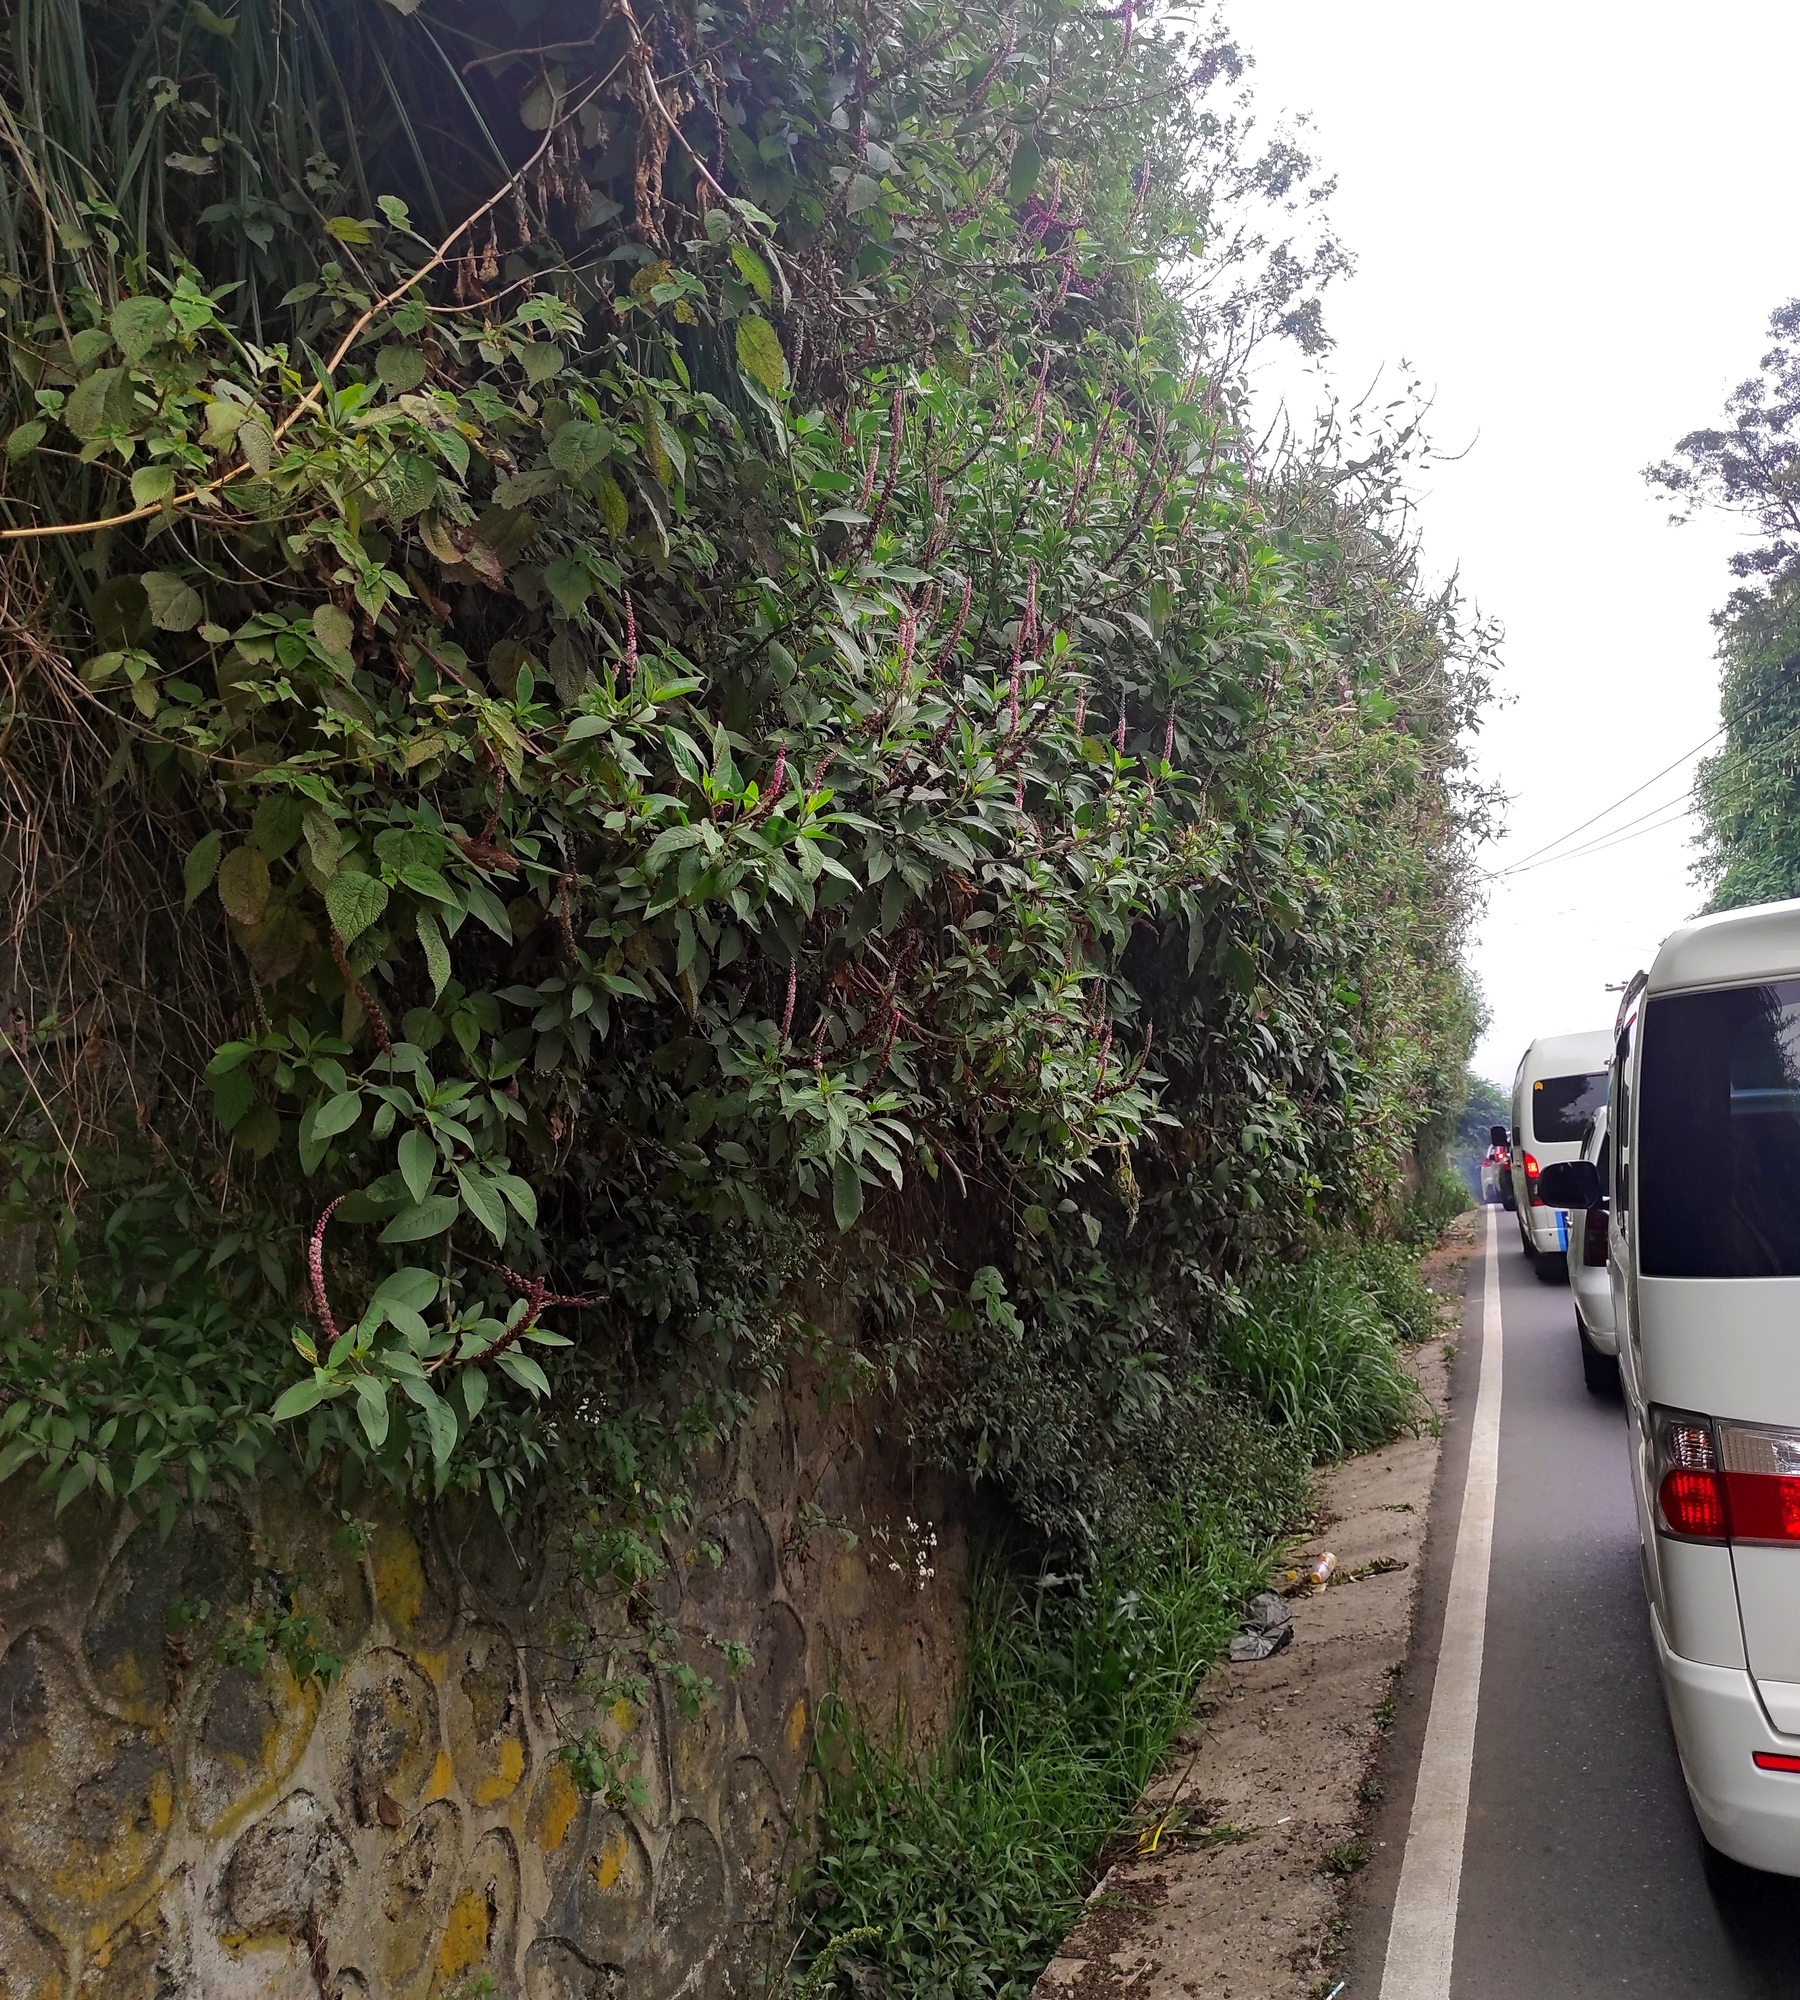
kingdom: Plantae
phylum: Tracheophyta
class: Magnoliopsida
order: Caryophyllales
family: Phytolaccaceae
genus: Phytolacca
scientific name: Phytolacca icosandra
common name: Button pokeweed
